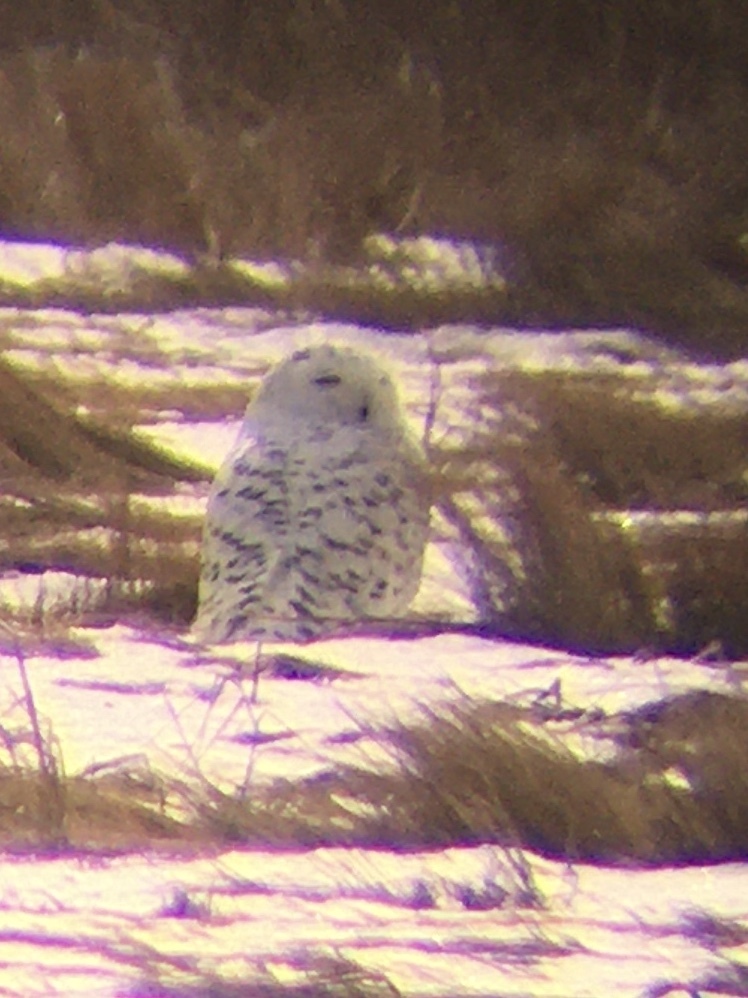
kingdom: Animalia
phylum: Chordata
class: Aves
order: Strigiformes
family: Strigidae
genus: Bubo
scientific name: Bubo scandiacus
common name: Snowy owl
